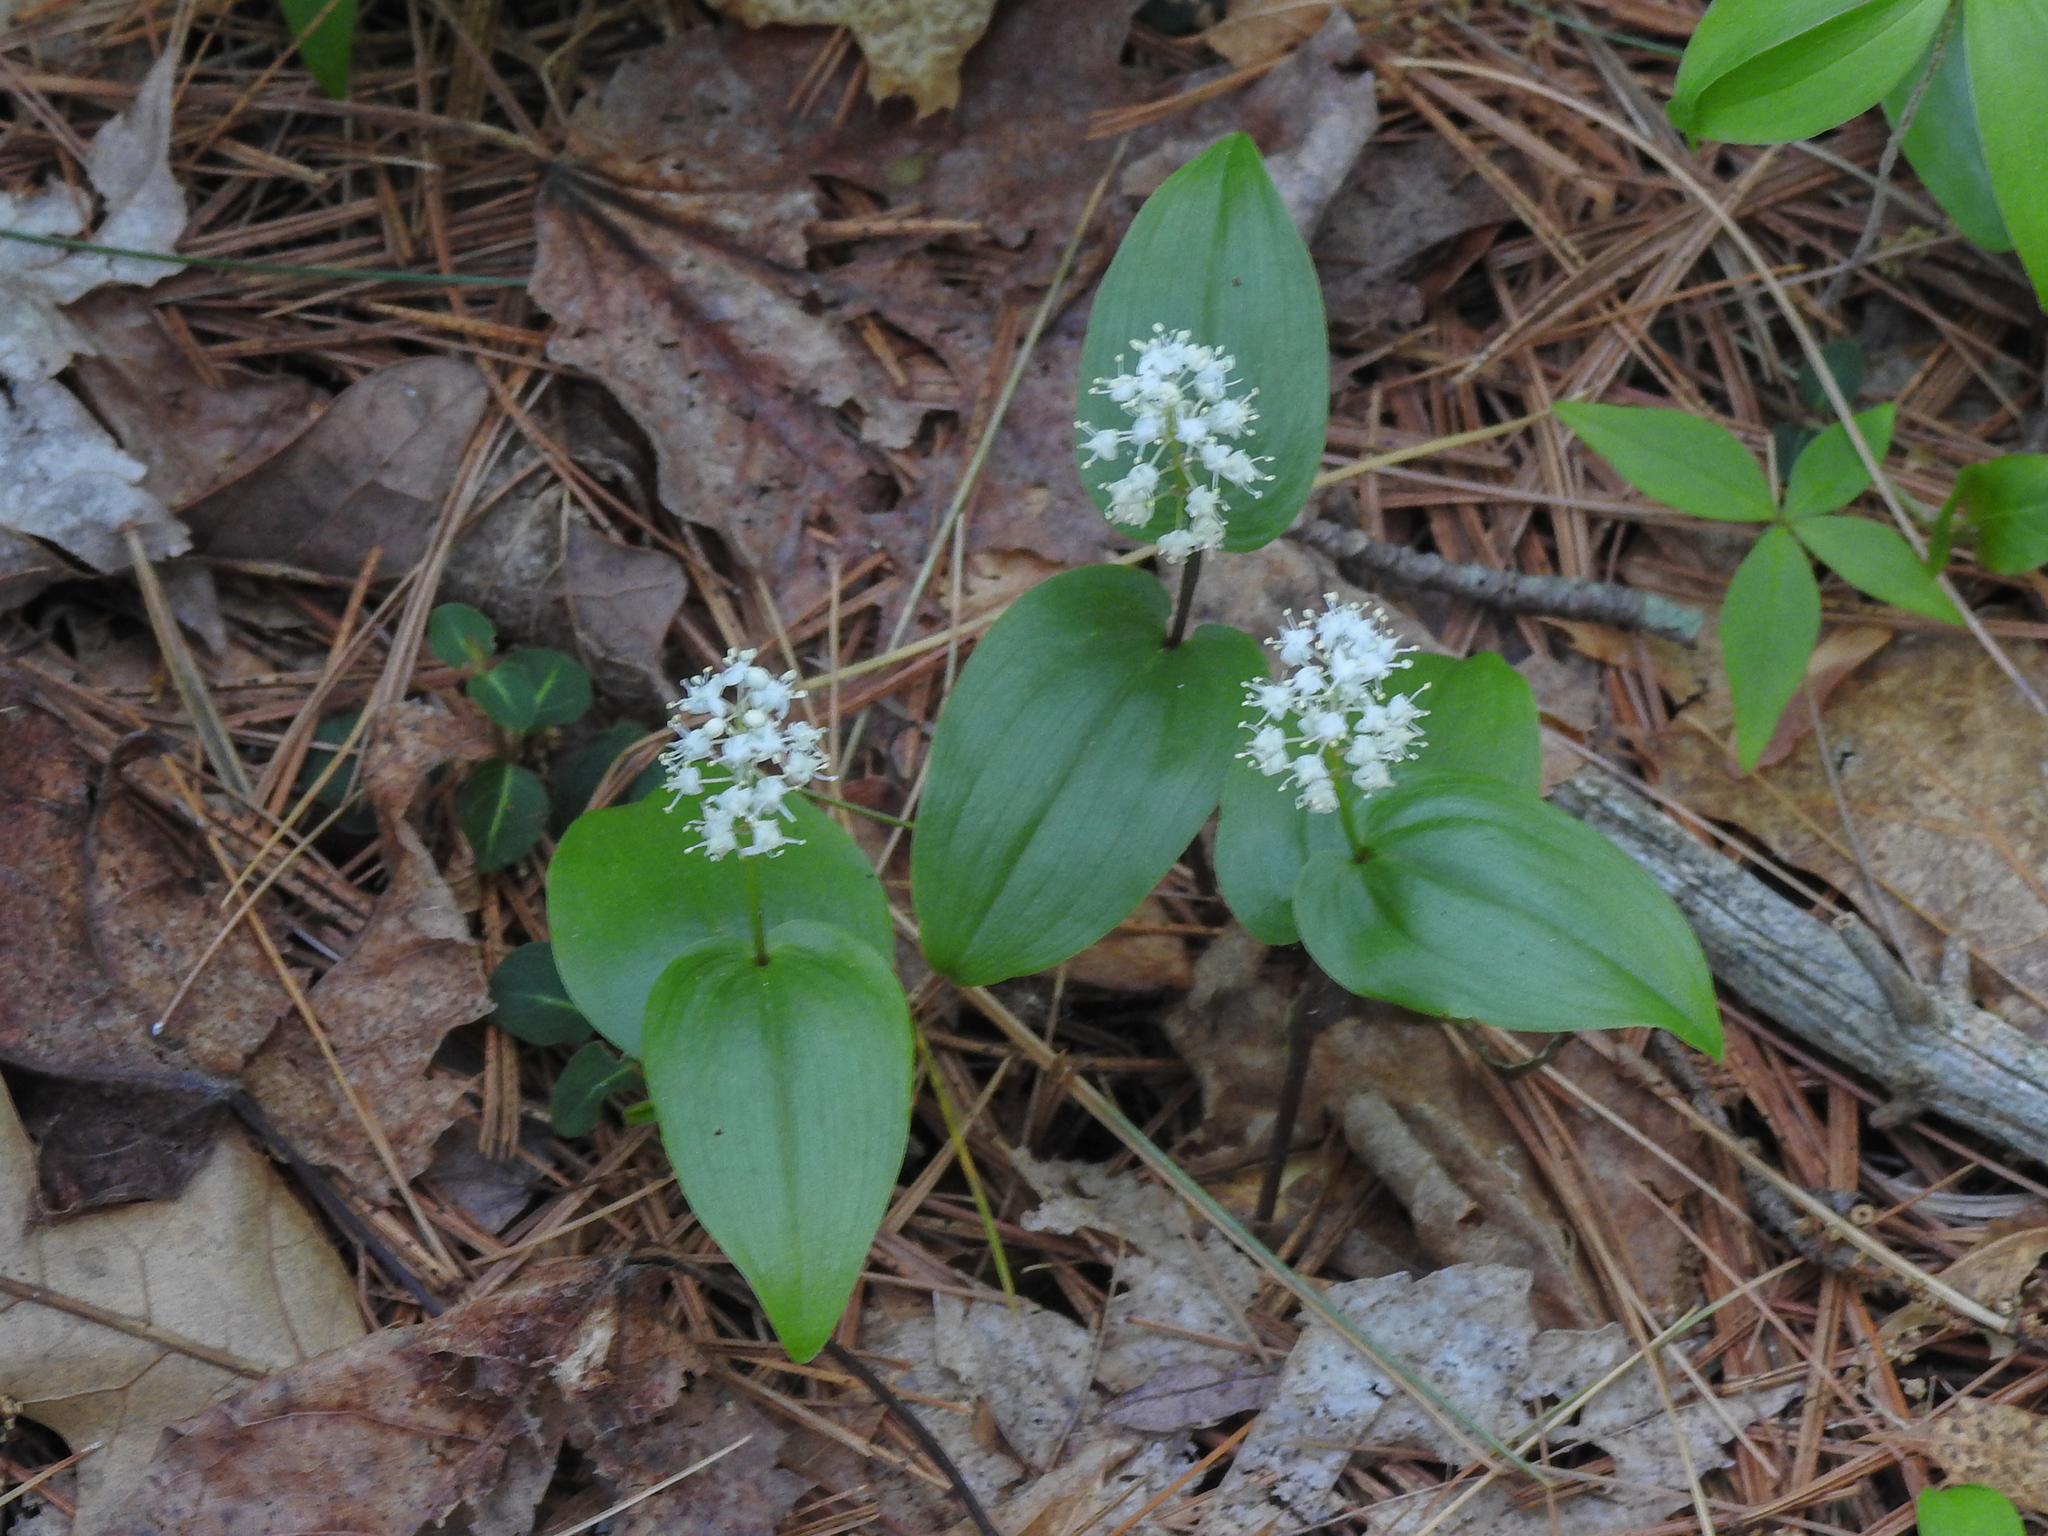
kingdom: Plantae
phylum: Tracheophyta
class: Liliopsida
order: Asparagales
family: Asparagaceae
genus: Maianthemum
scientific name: Maianthemum canadense
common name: False lily-of-the-valley
